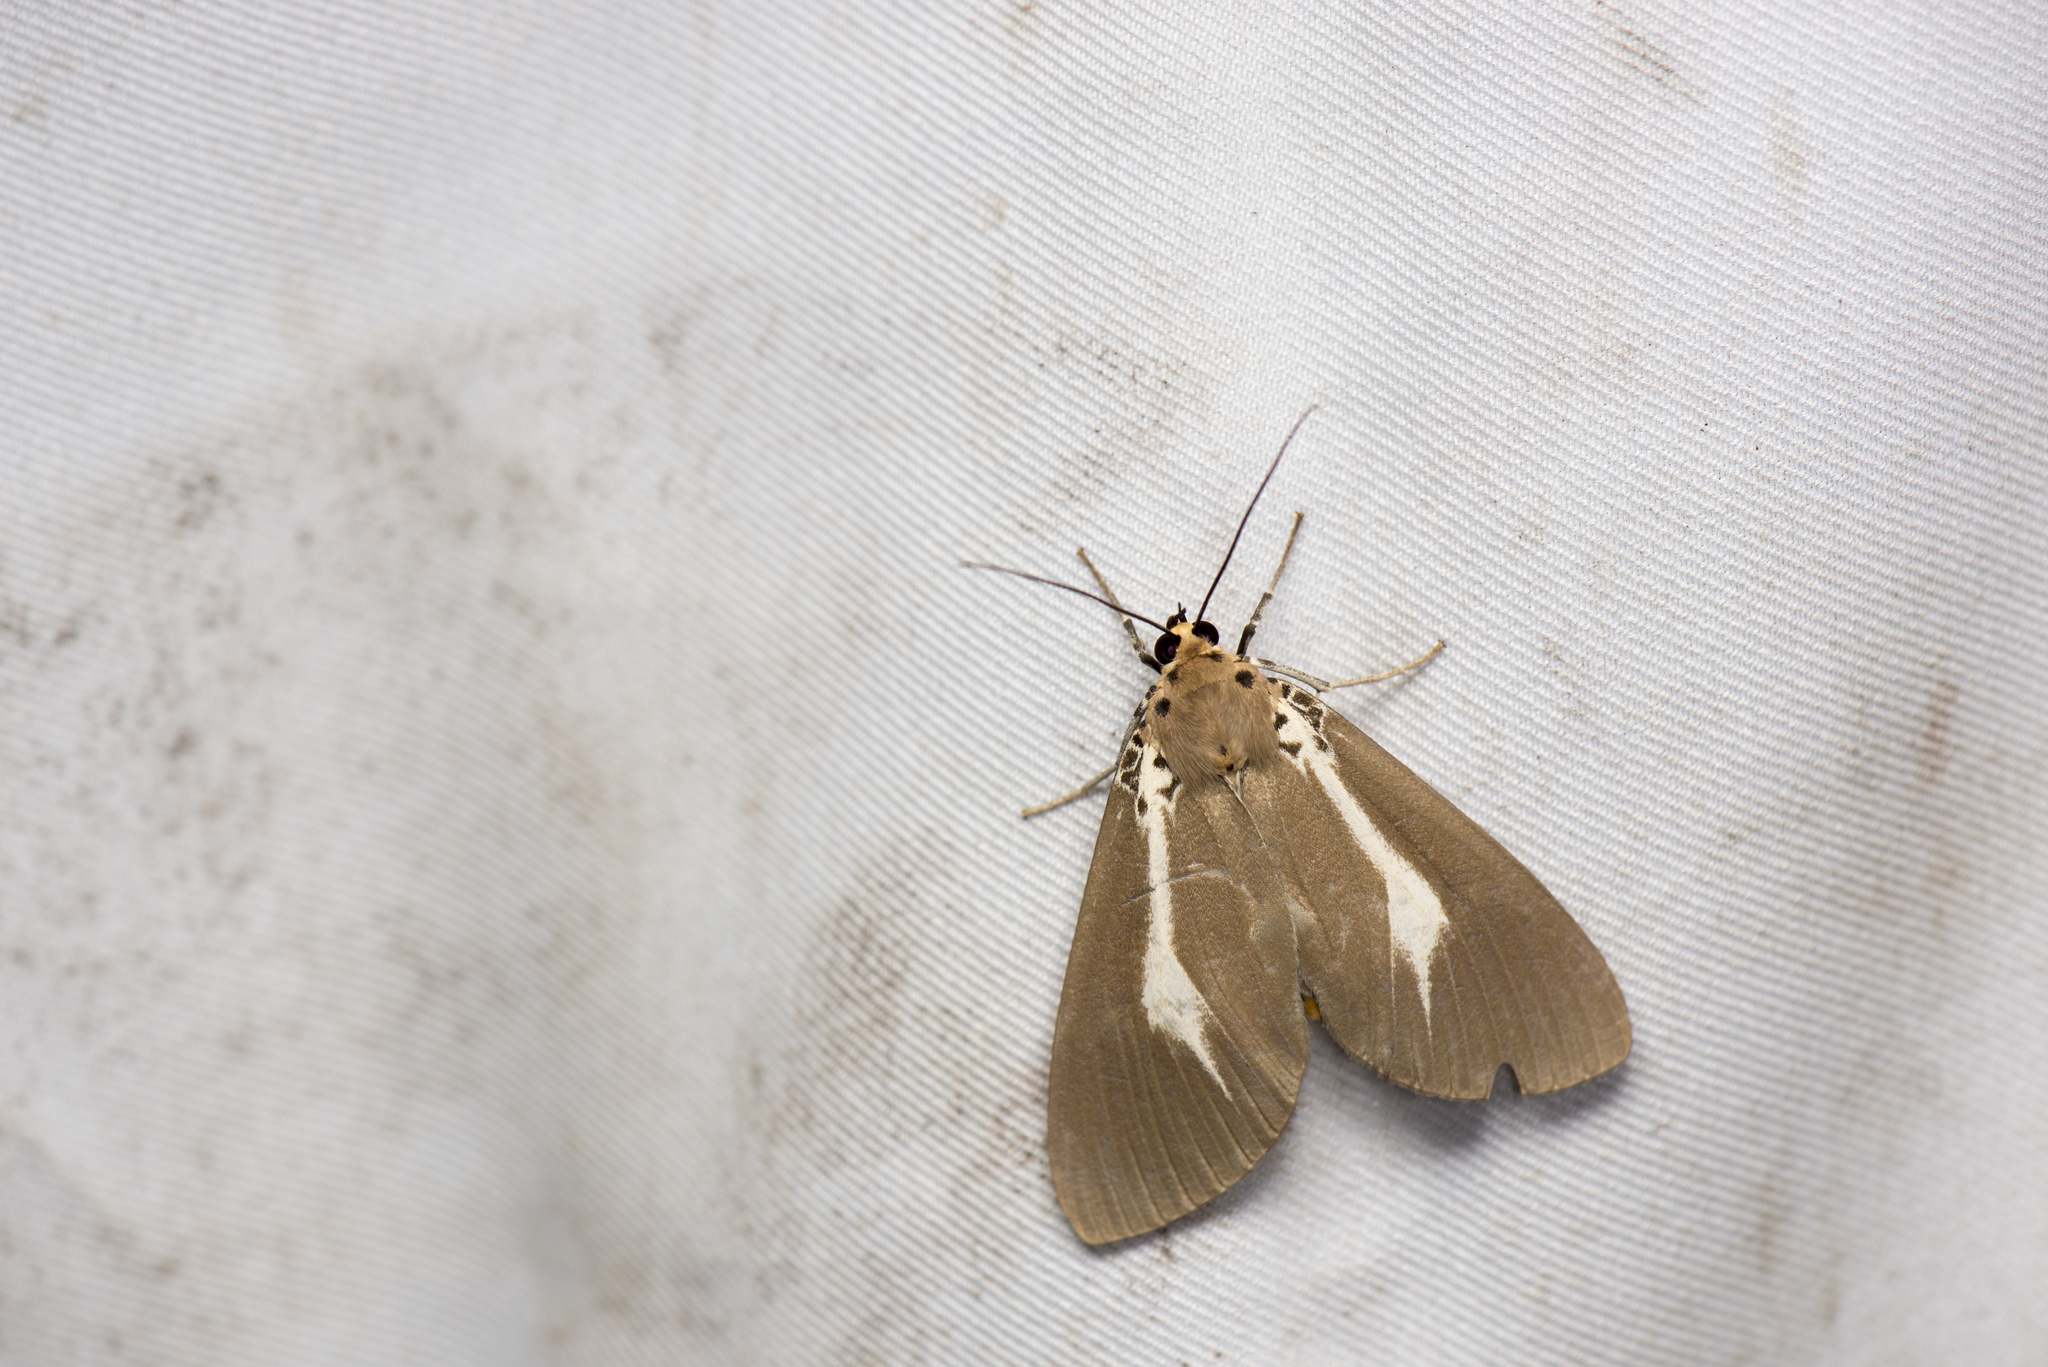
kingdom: Animalia
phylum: Arthropoda
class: Insecta
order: Lepidoptera
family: Erebidae
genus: Asota
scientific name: Asota heliconia
